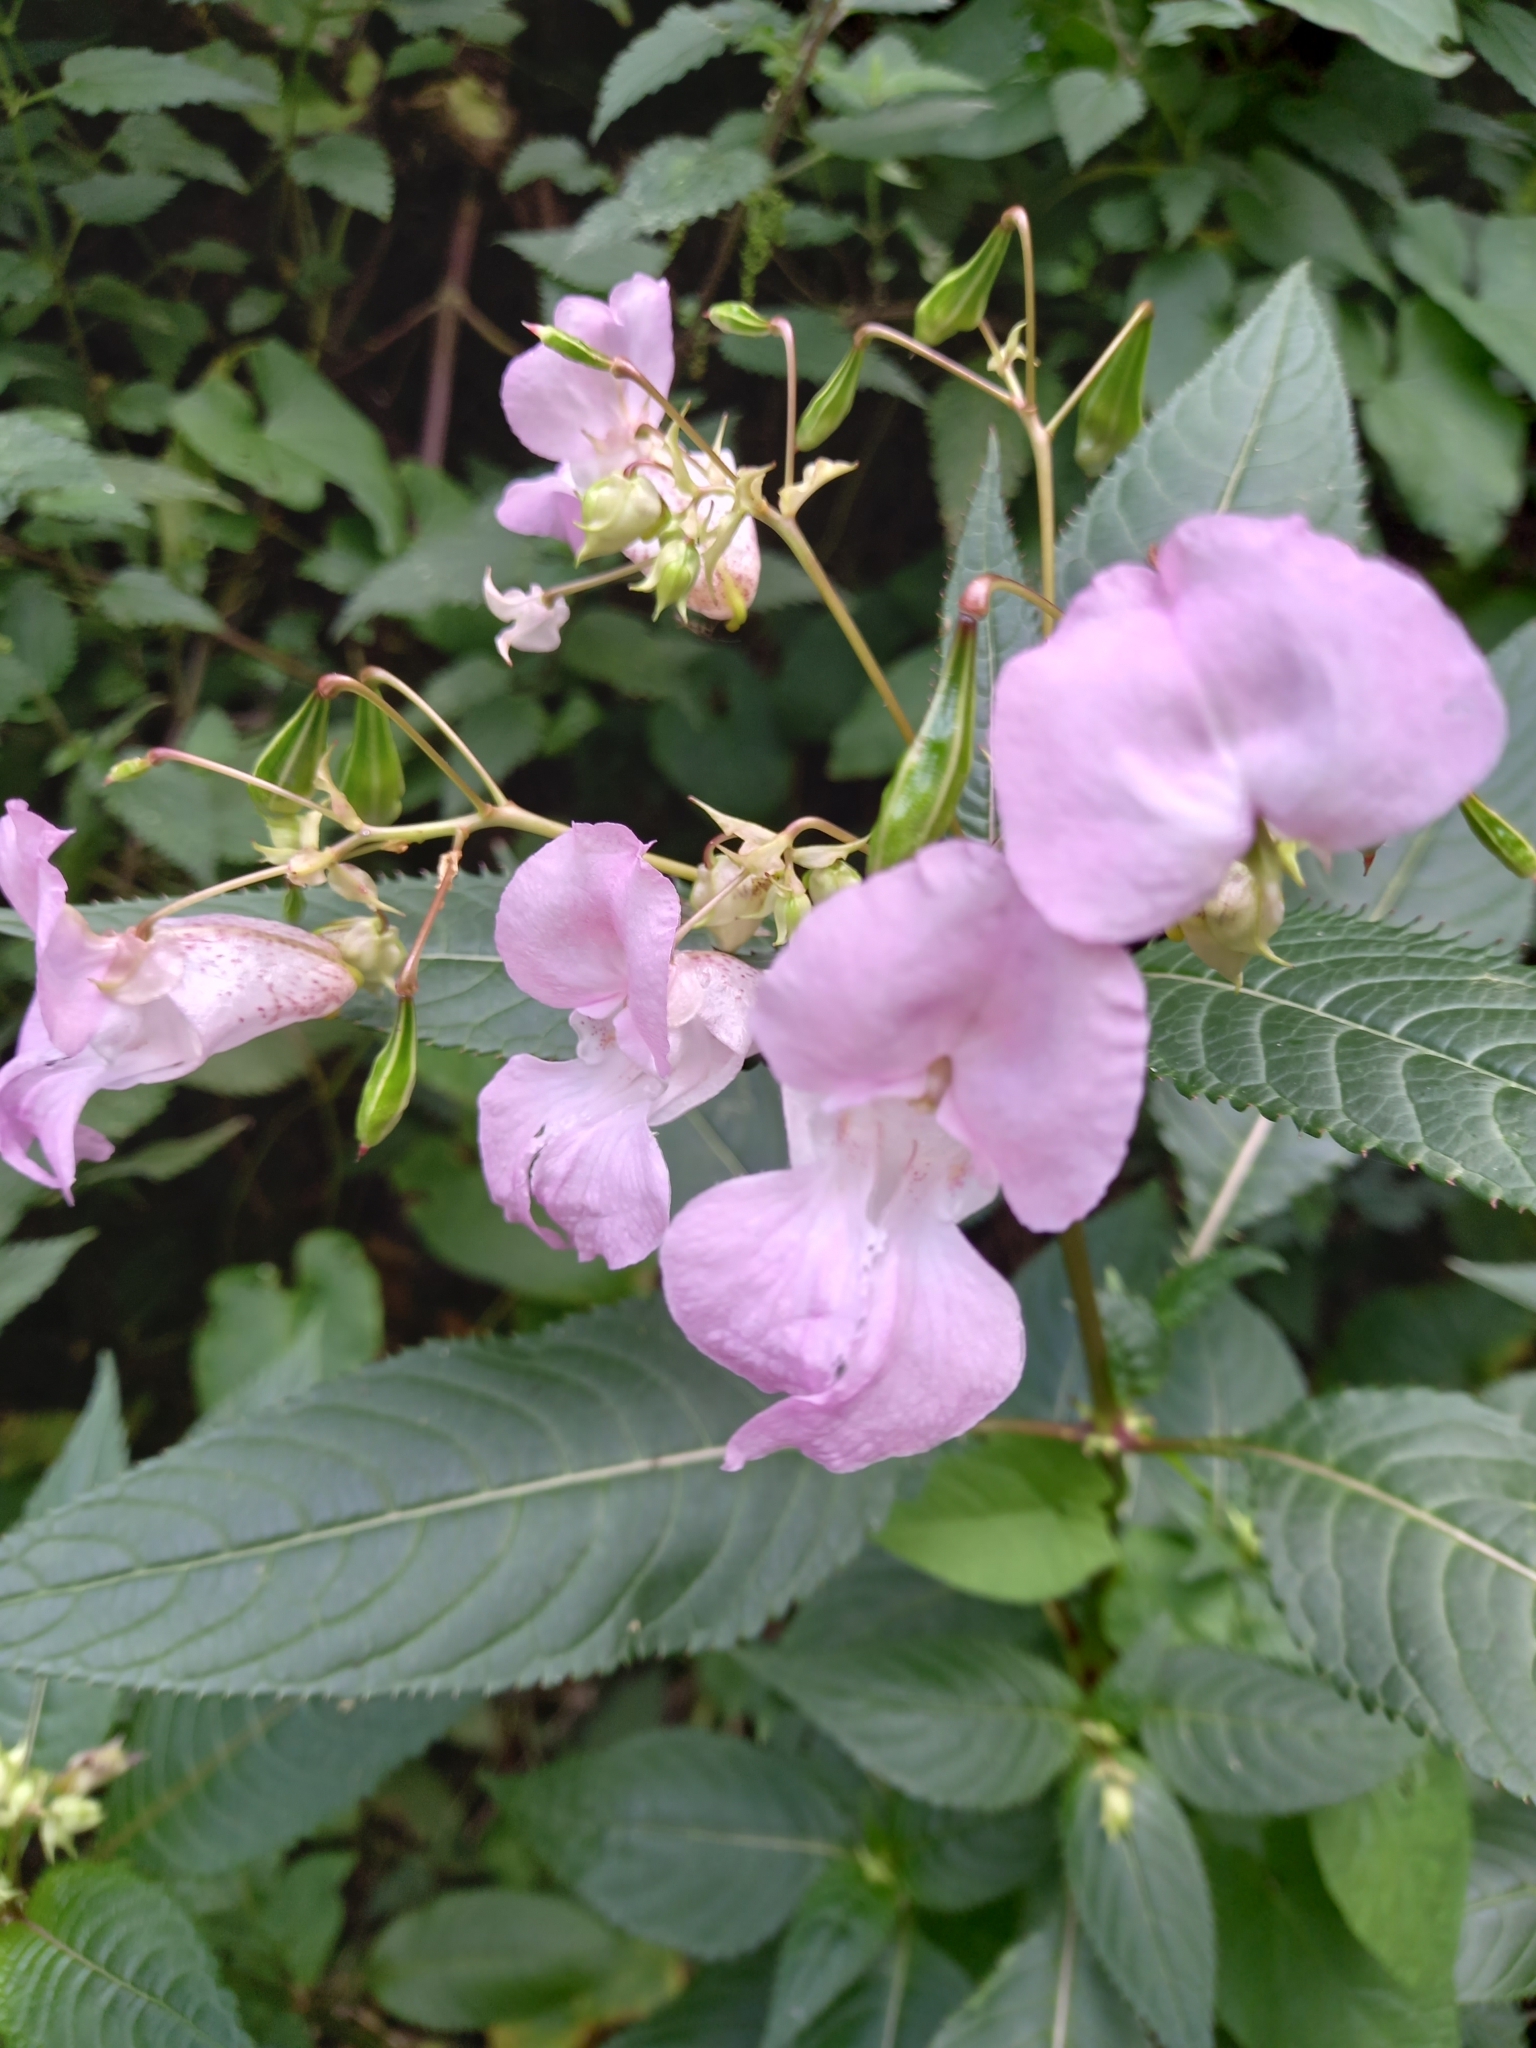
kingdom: Plantae
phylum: Tracheophyta
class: Magnoliopsida
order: Ericales
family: Balsaminaceae
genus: Impatiens
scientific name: Impatiens glandulifera
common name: Himalayan balsam
